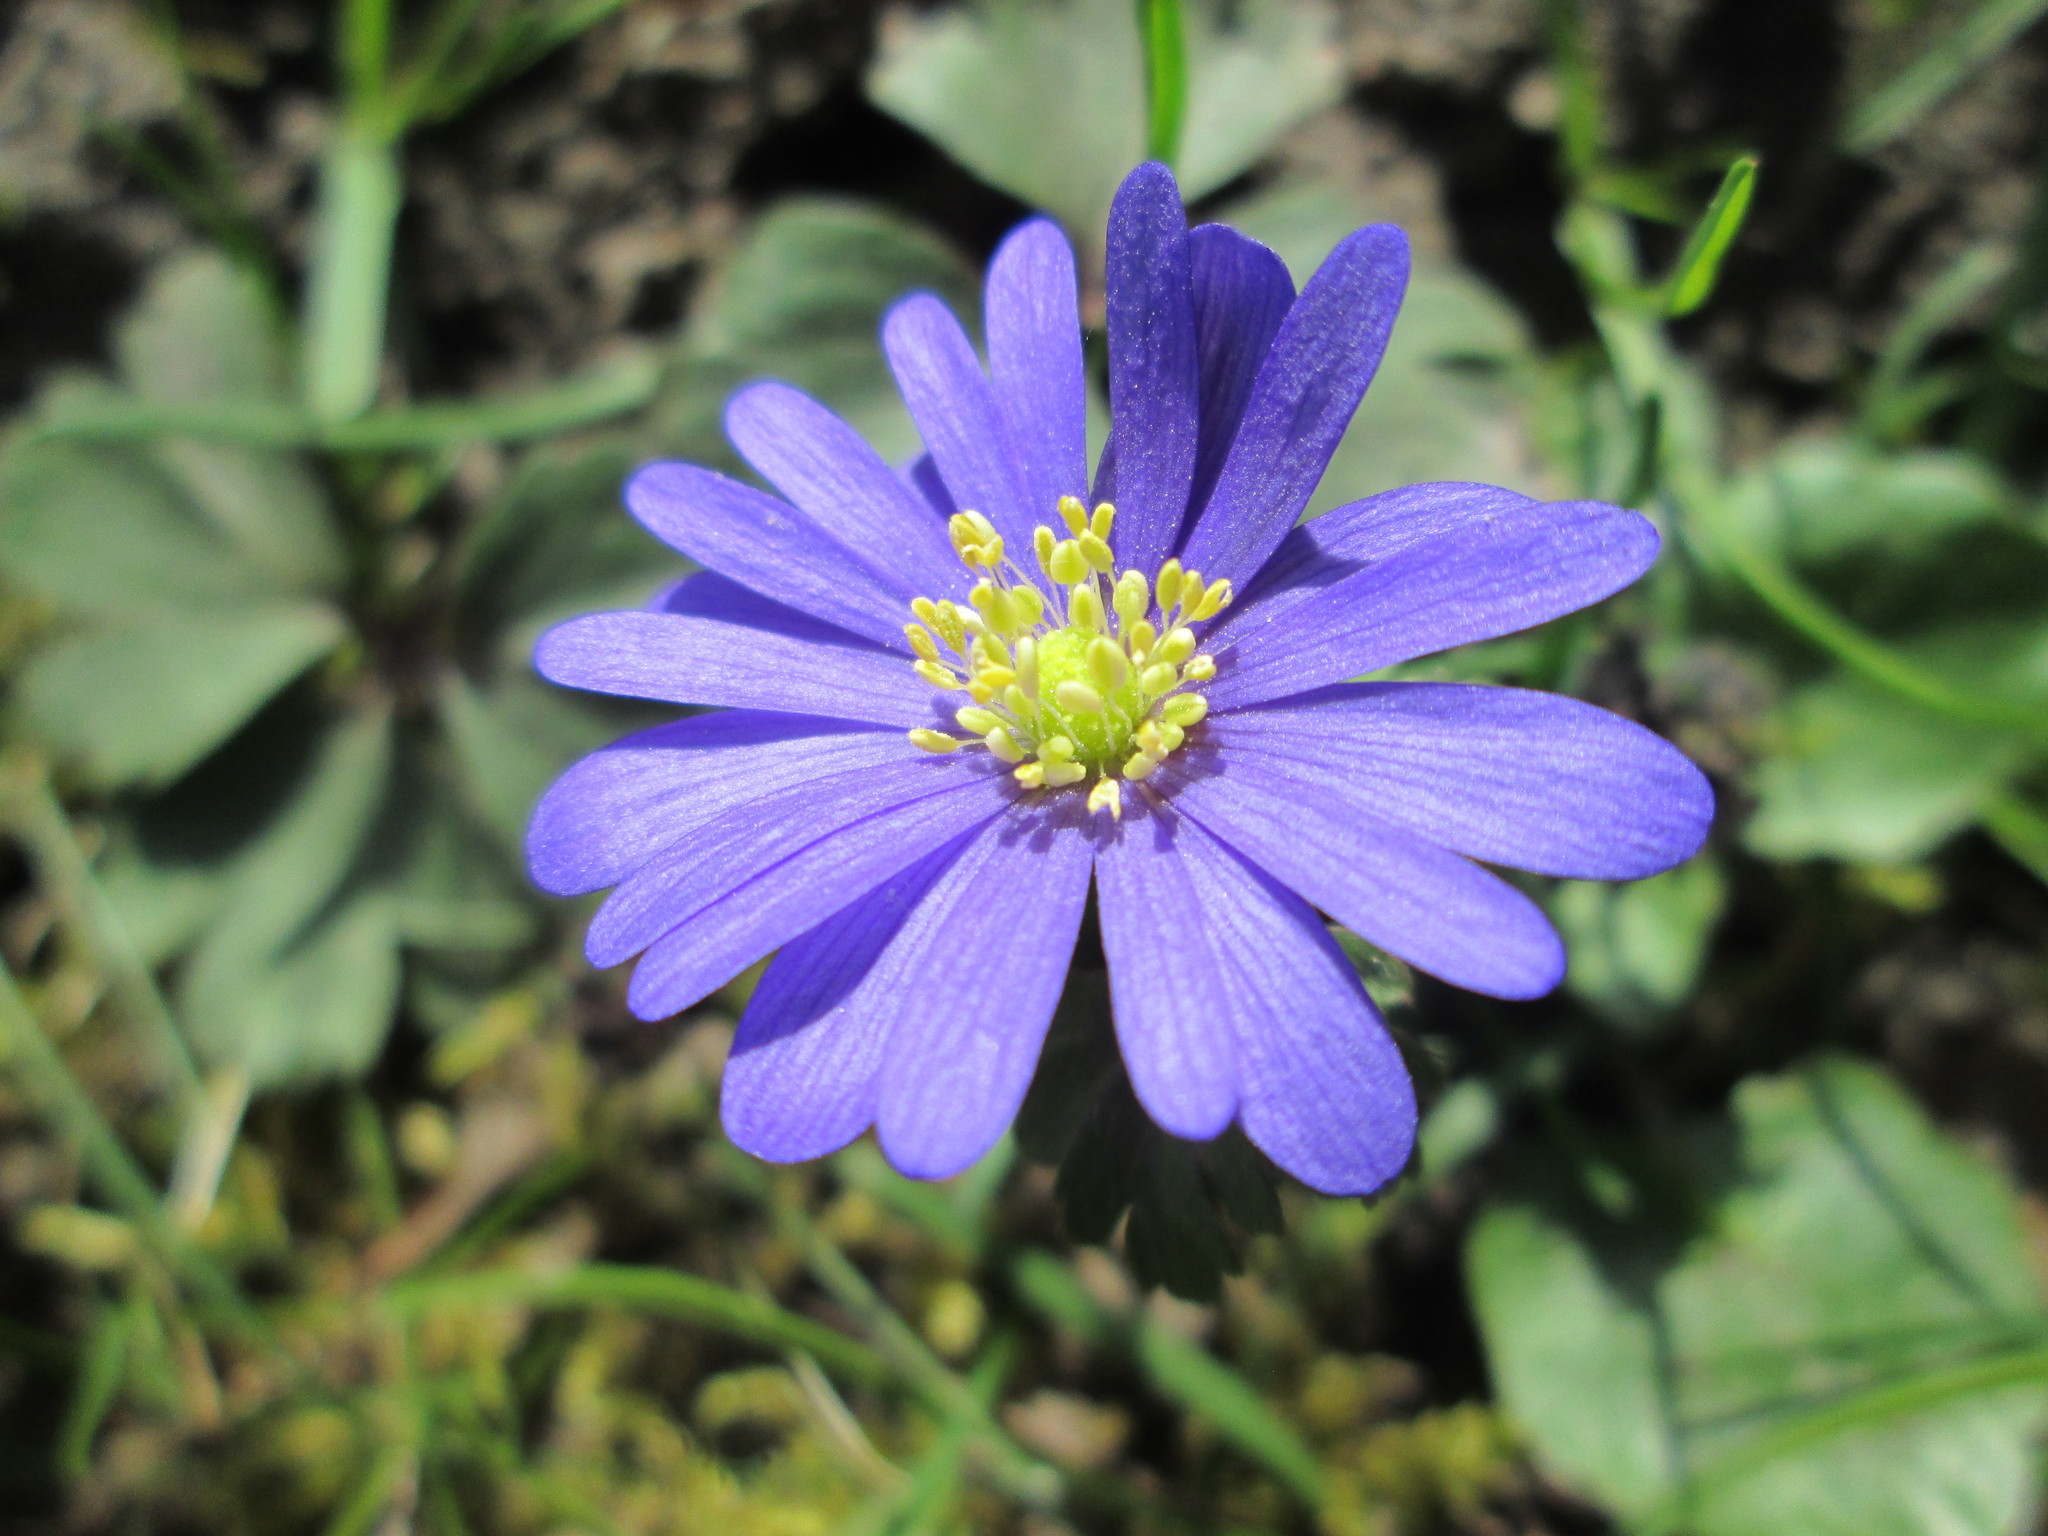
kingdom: Plantae
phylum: Tracheophyta
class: Magnoliopsida
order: Ranunculales
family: Ranunculaceae
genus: Anemone
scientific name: Anemone blanda
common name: Balkan anemone
